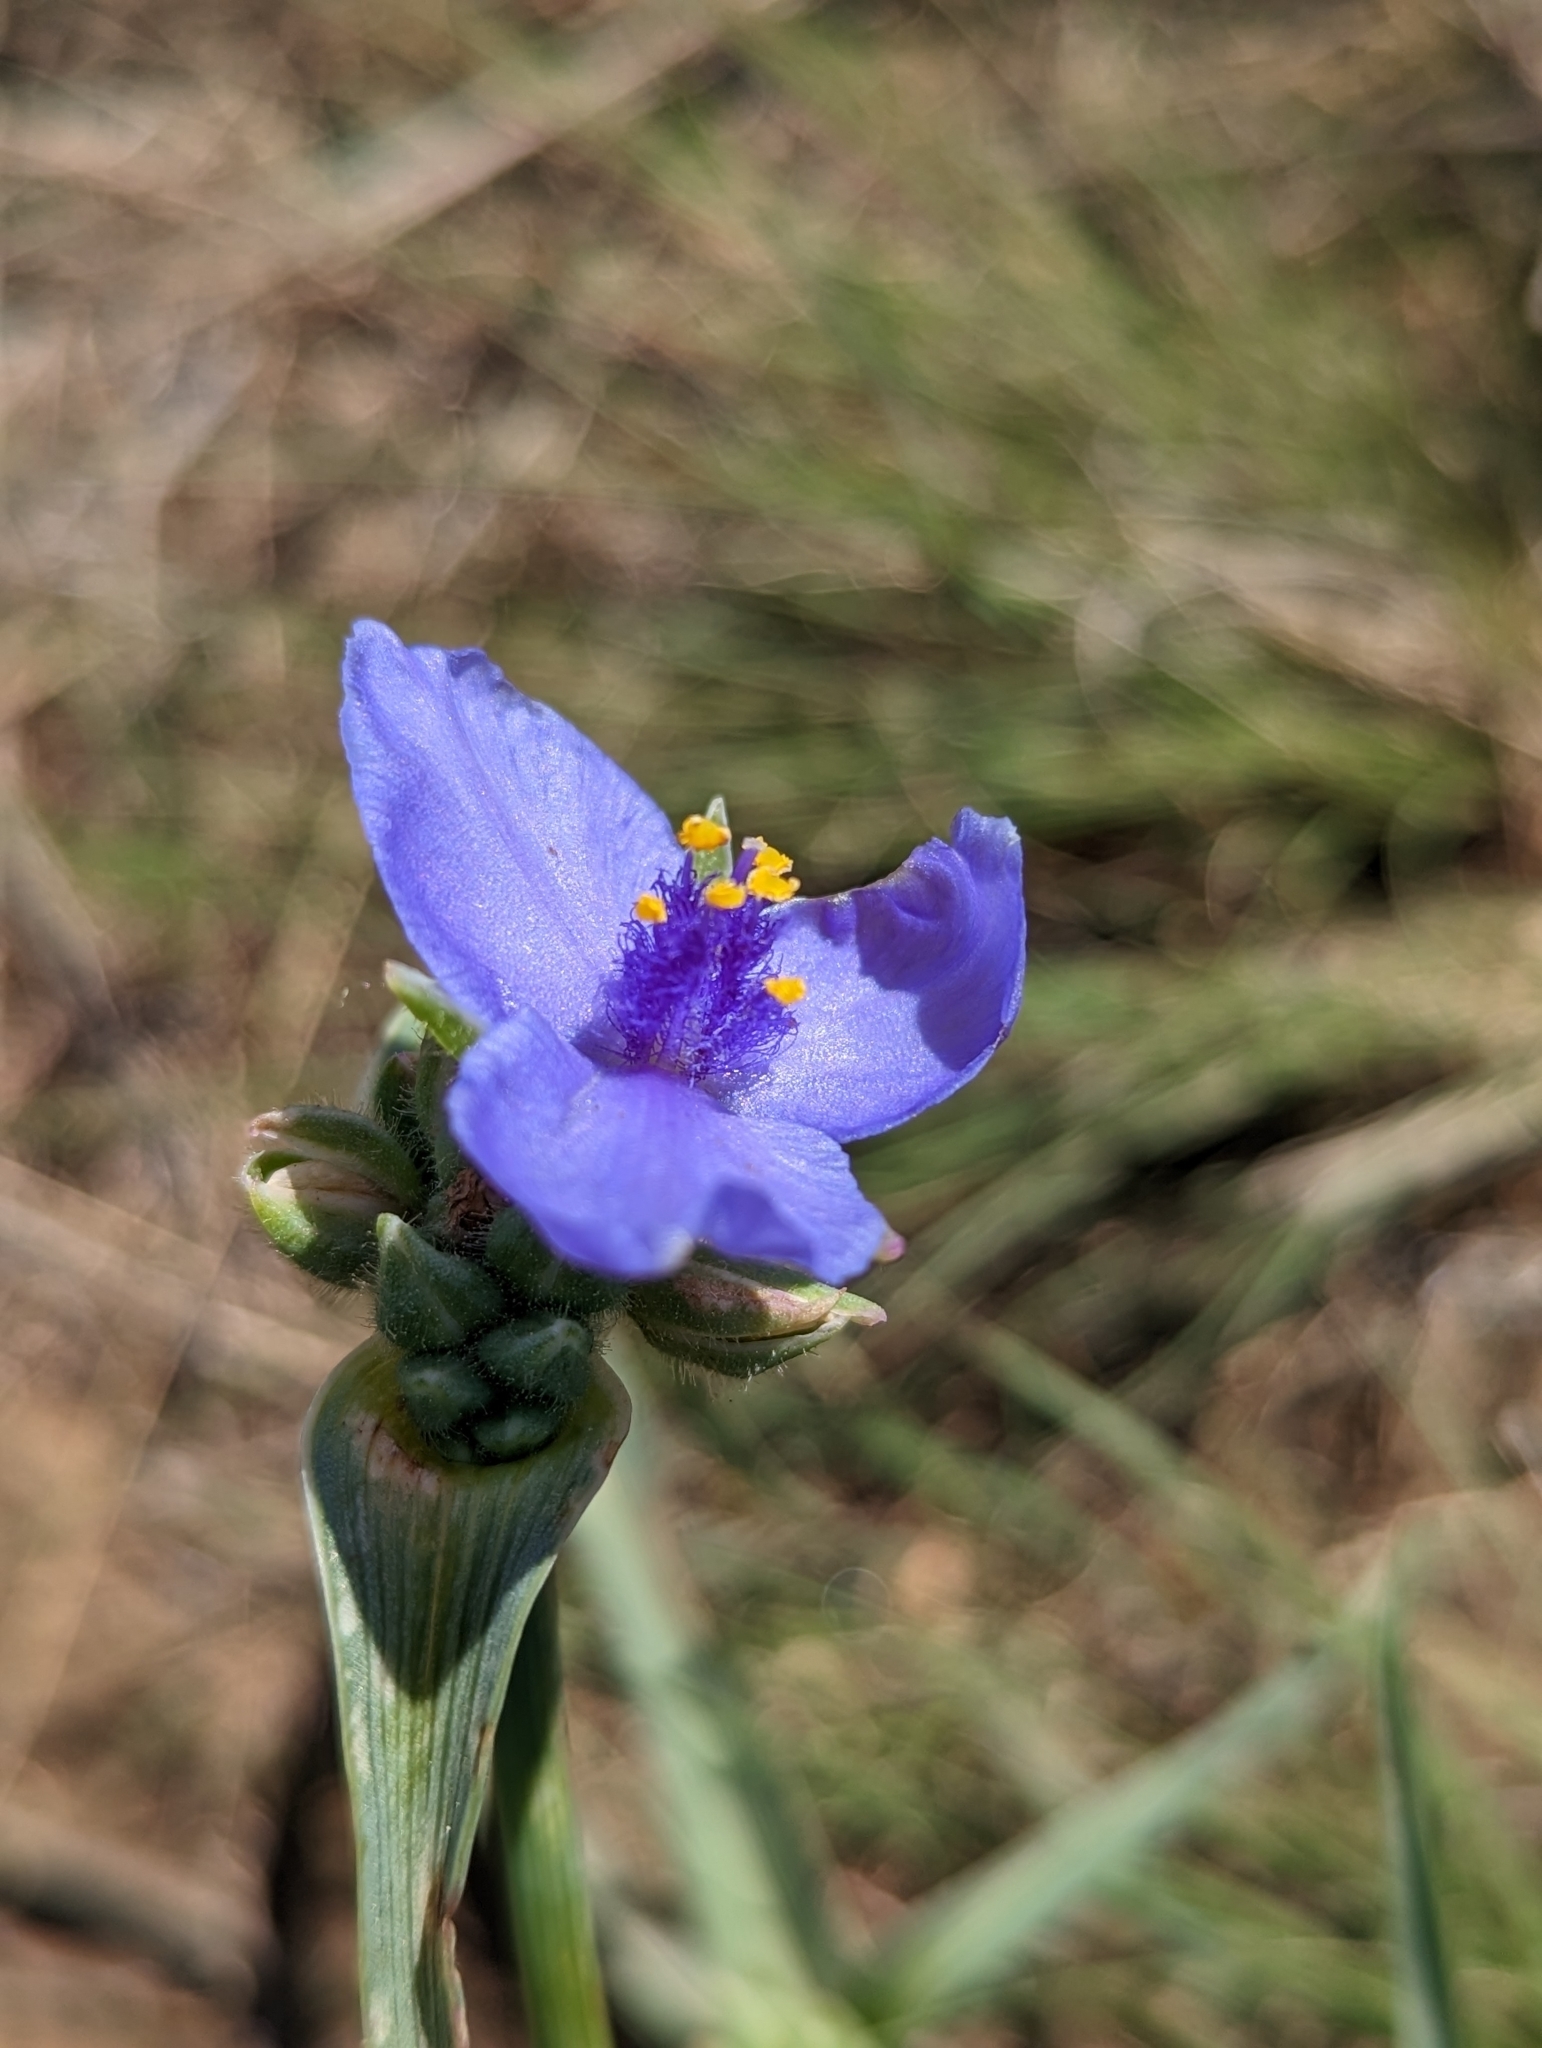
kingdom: Plantae
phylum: Tracheophyta
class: Liliopsida
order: Commelinales
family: Commelinaceae
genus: Tradescantia
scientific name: Tradescantia occidentalis
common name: Prairie spiderwort
